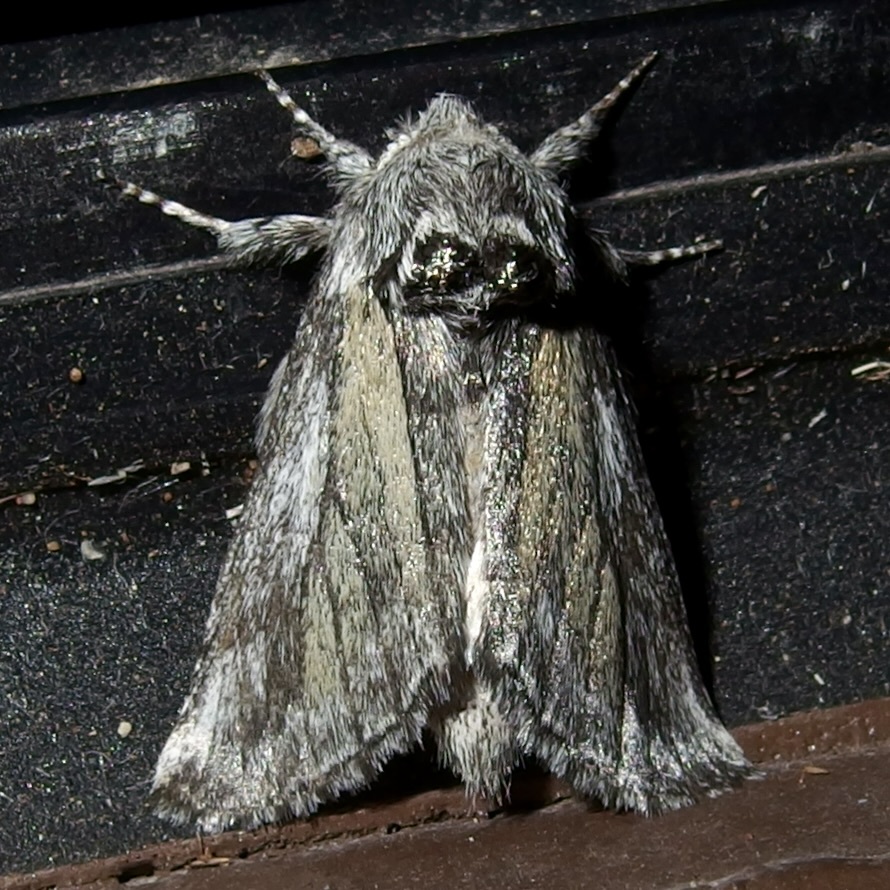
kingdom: Animalia
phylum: Arthropoda
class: Insecta
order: Lepidoptera
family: Notodontidae
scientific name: Notodontidae
